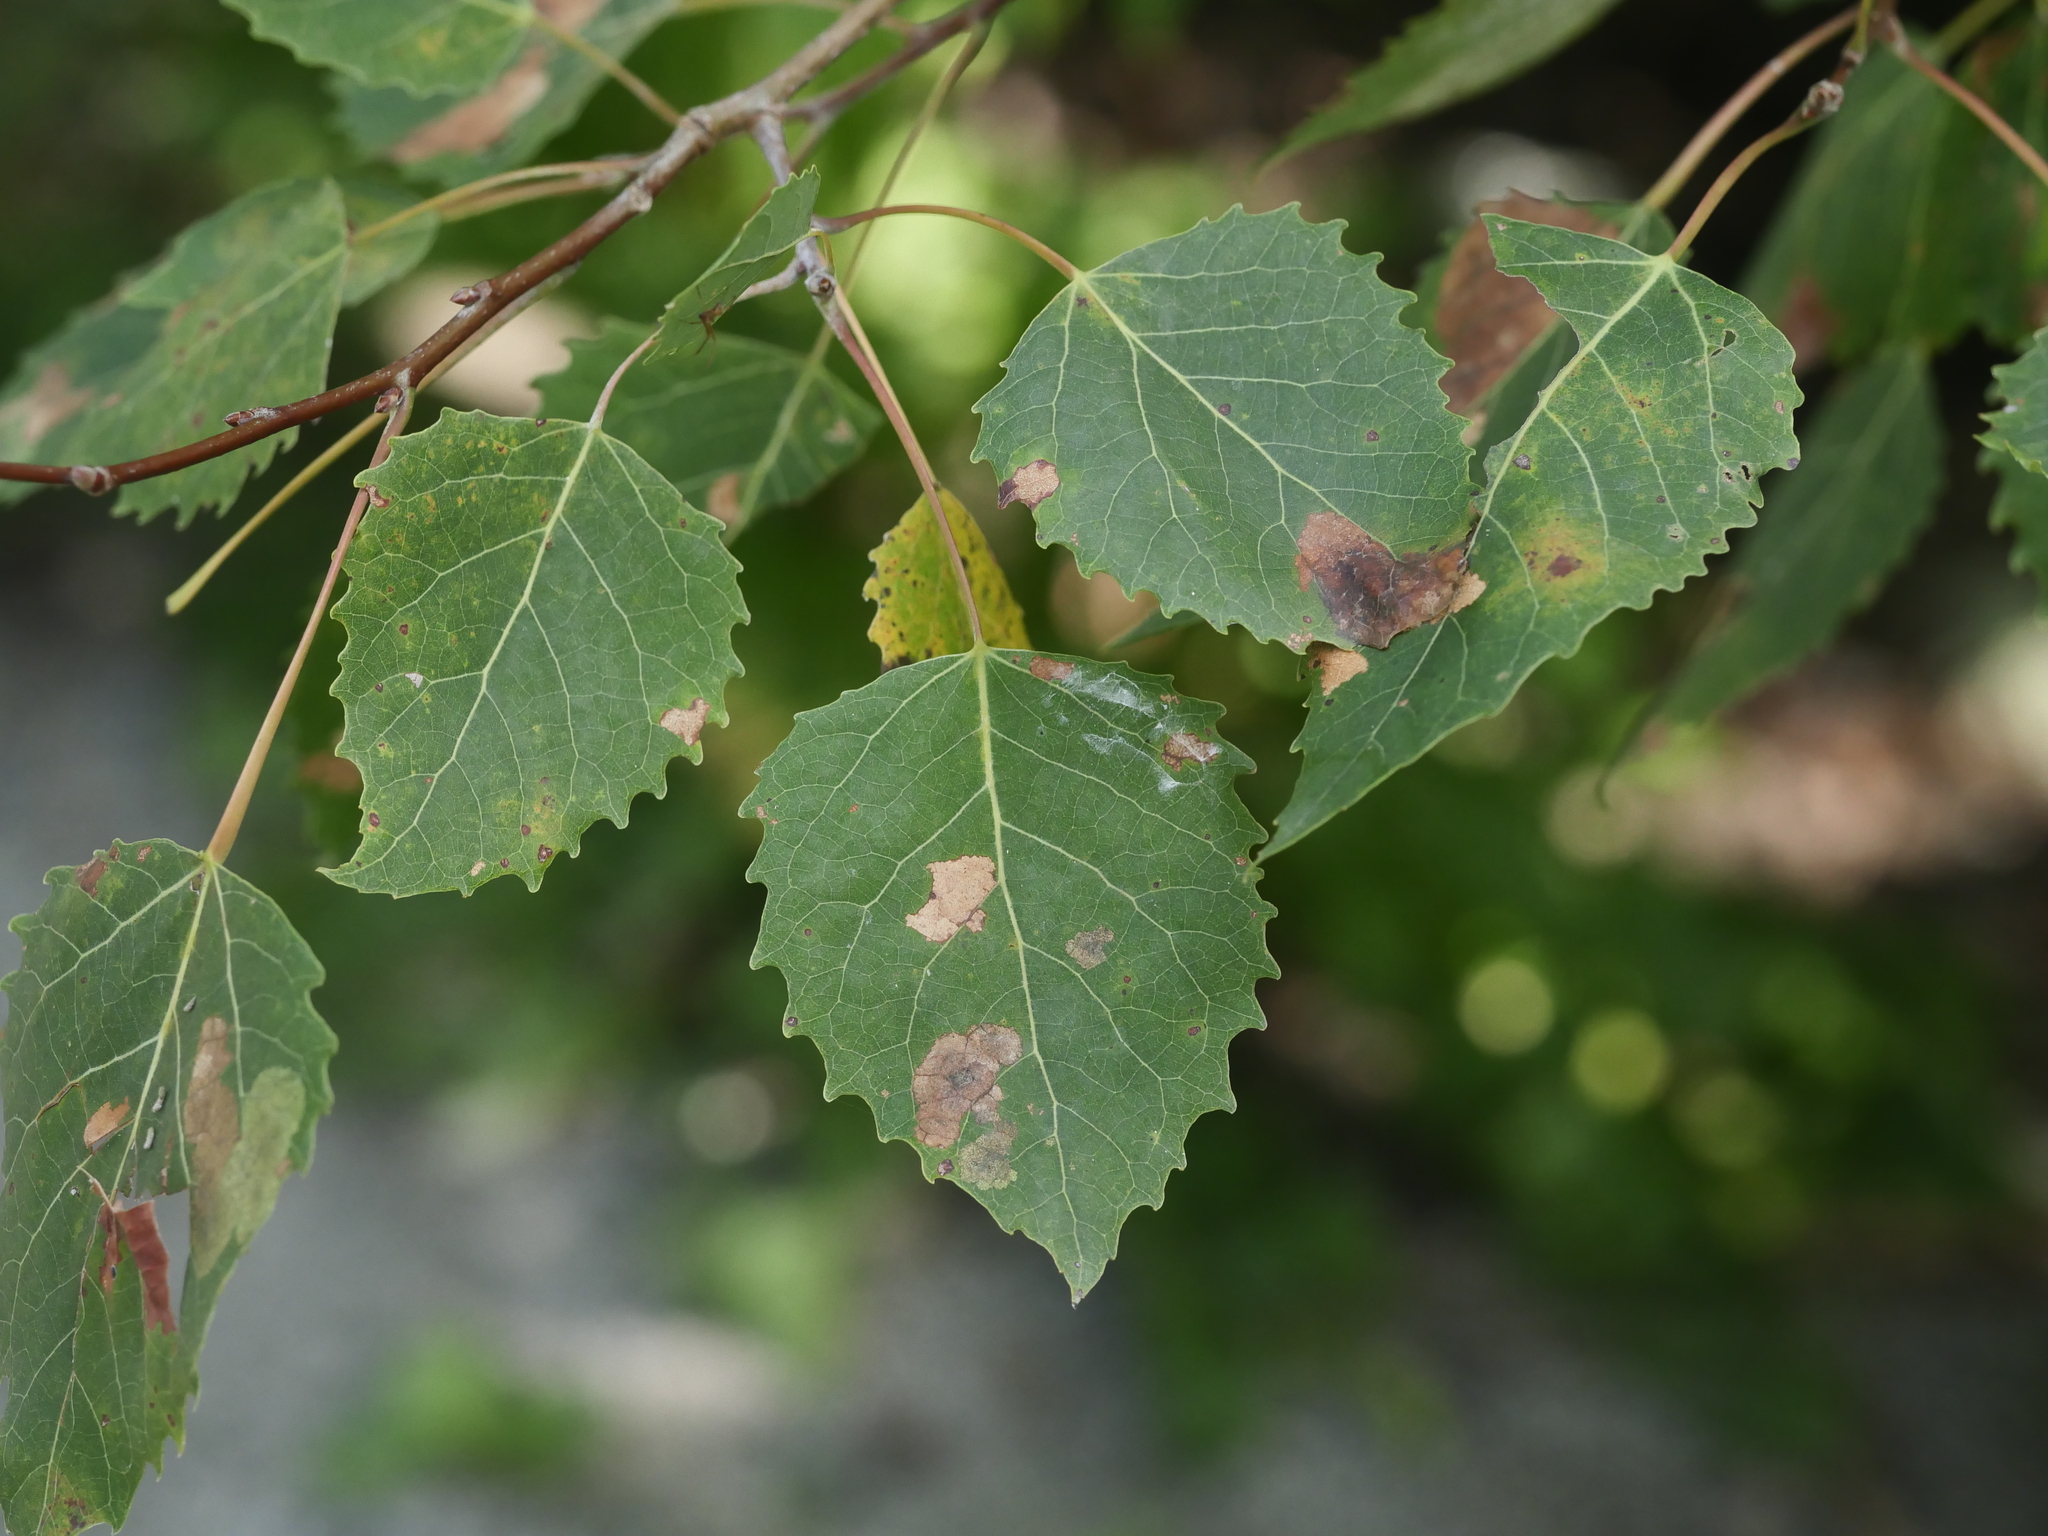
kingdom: Plantae
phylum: Tracheophyta
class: Magnoliopsida
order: Malpighiales
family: Salicaceae
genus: Populus
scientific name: Populus grandidentata
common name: Bigtooth aspen
